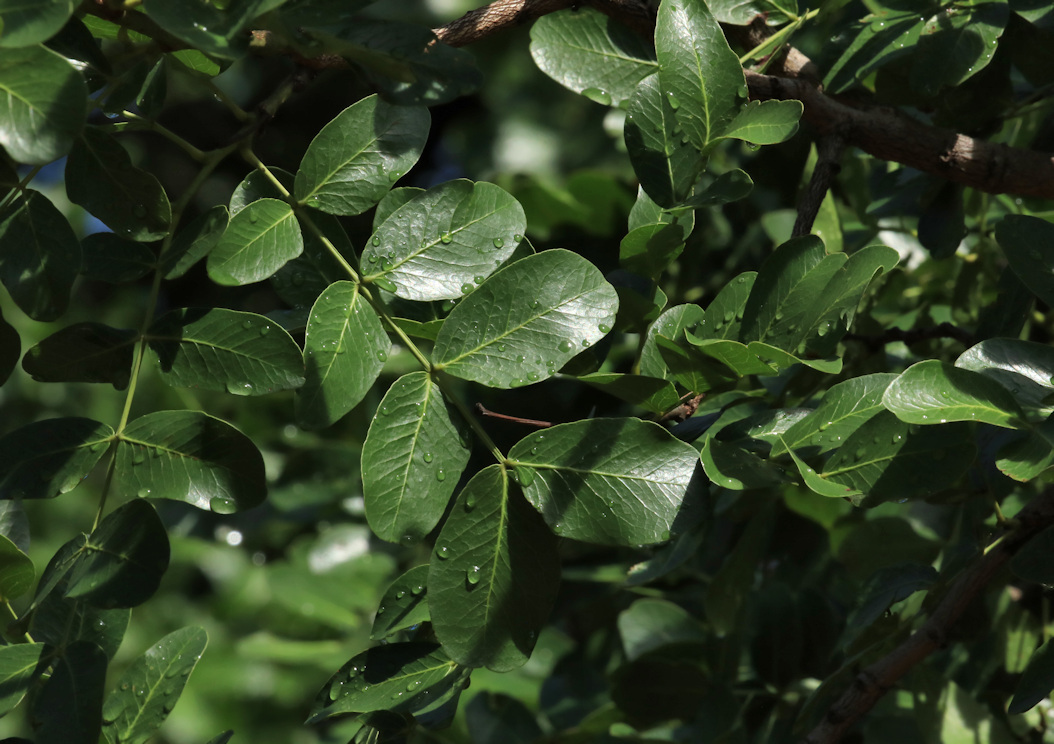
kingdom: Plantae
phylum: Tracheophyta
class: Magnoliopsida
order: Fabales
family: Fabaceae
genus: Schotia
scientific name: Schotia brachypetala
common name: Weeping boer-bean
